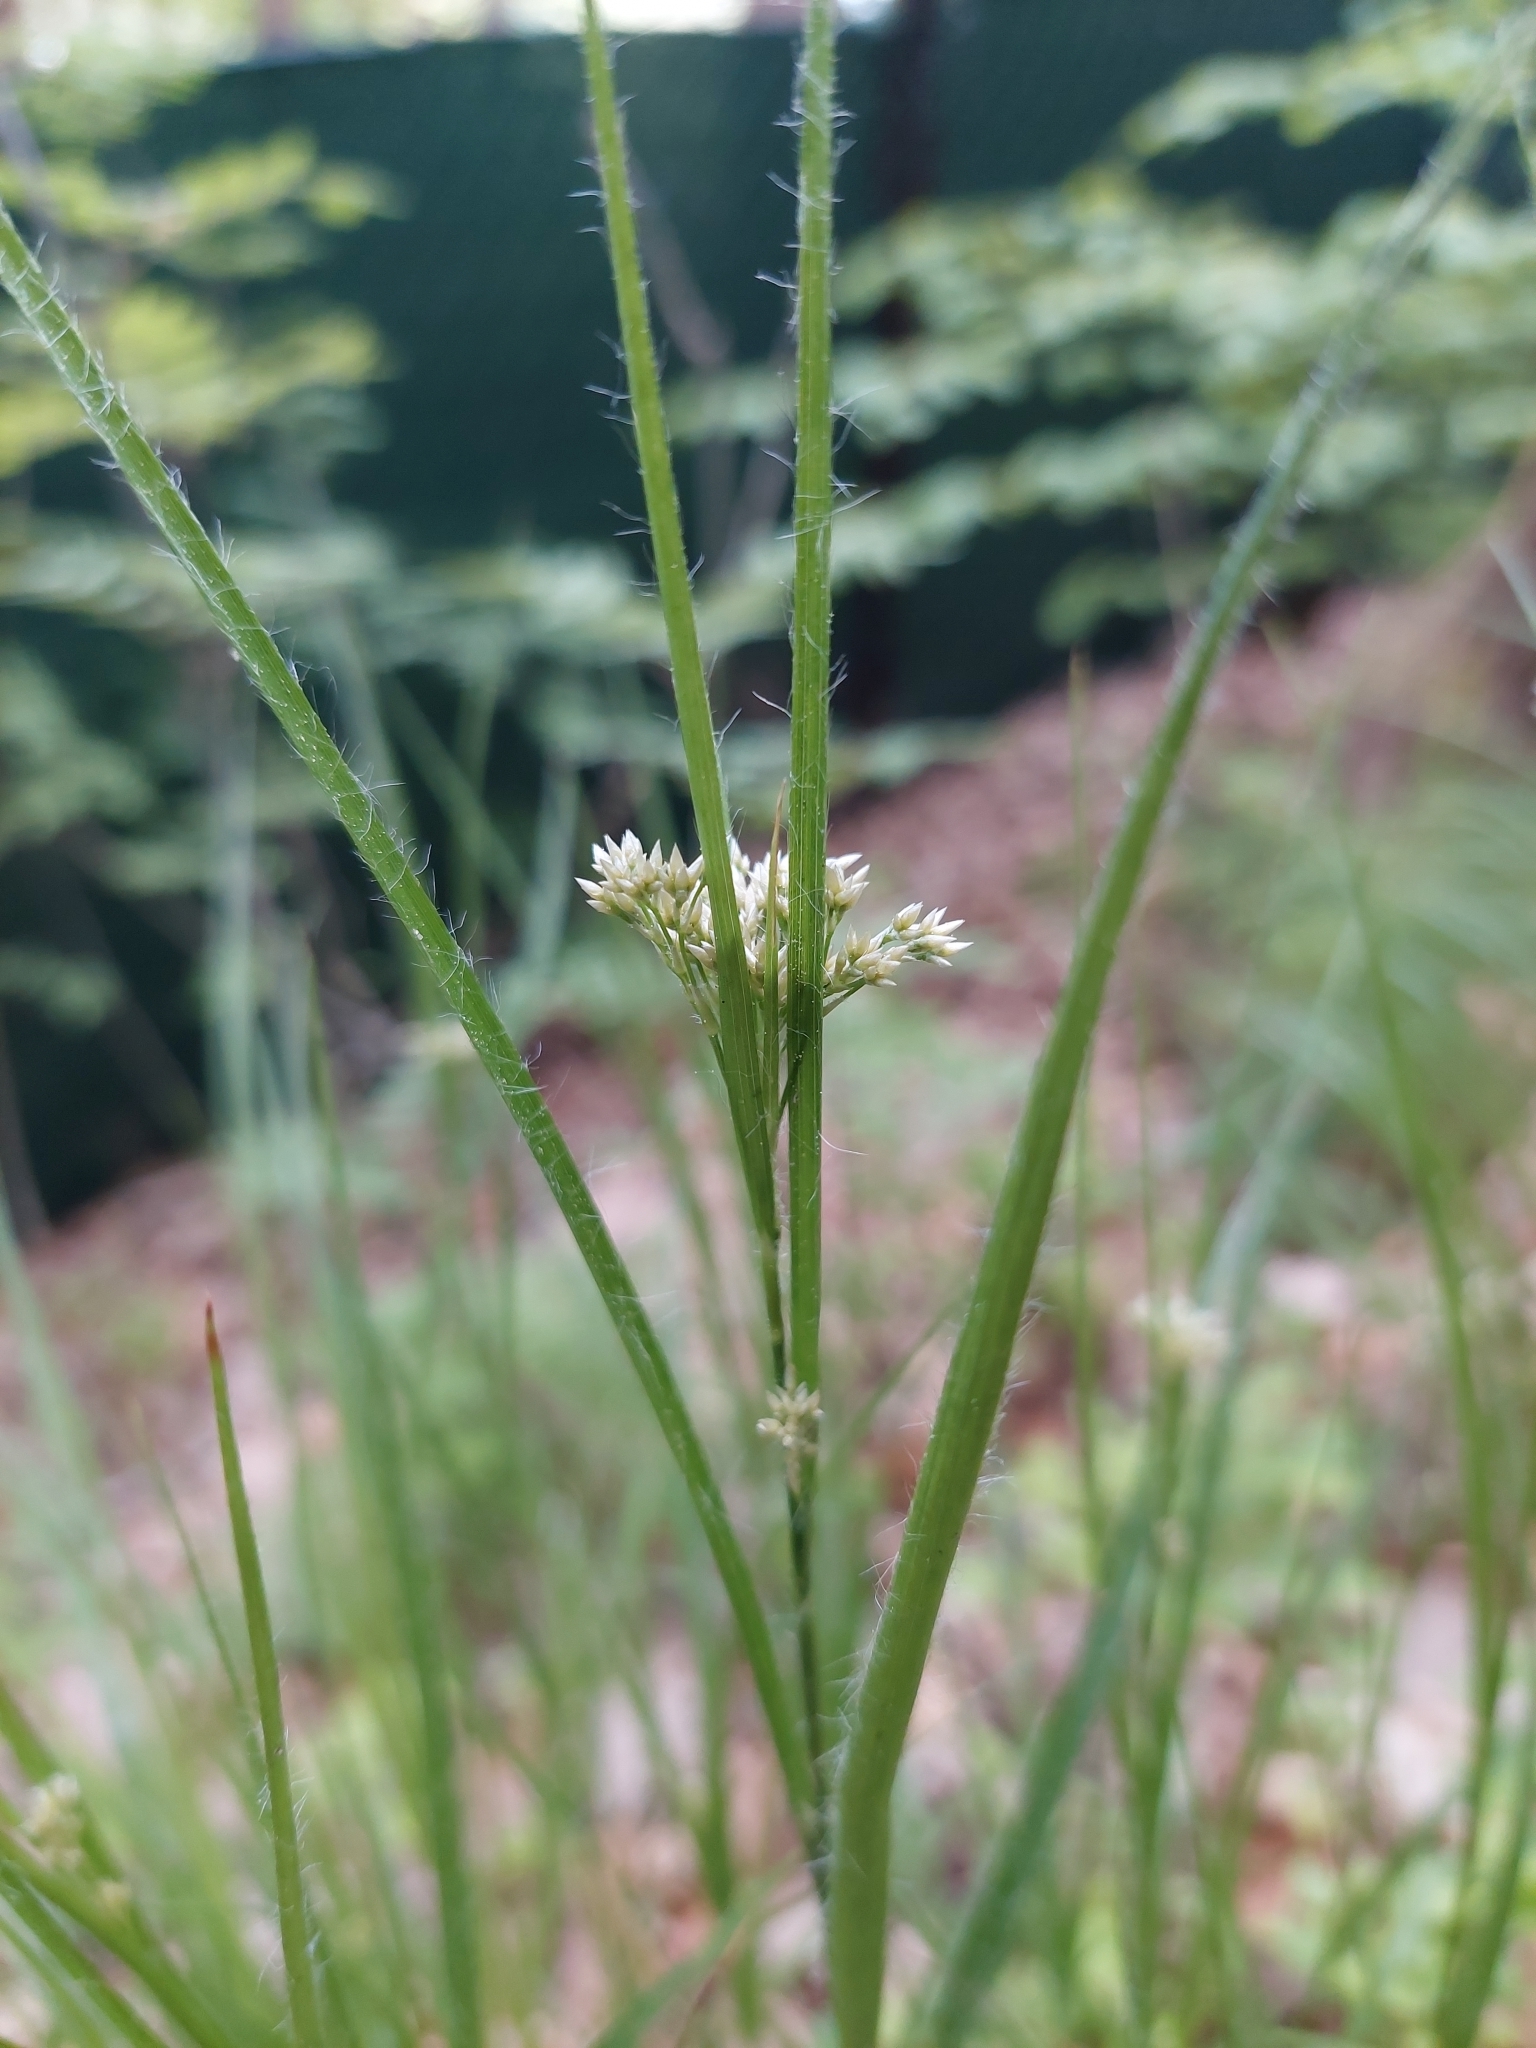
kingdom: Plantae
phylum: Tracheophyta
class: Liliopsida
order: Poales
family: Juncaceae
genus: Luzula
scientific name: Luzula luzuloides
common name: White wood-rush
